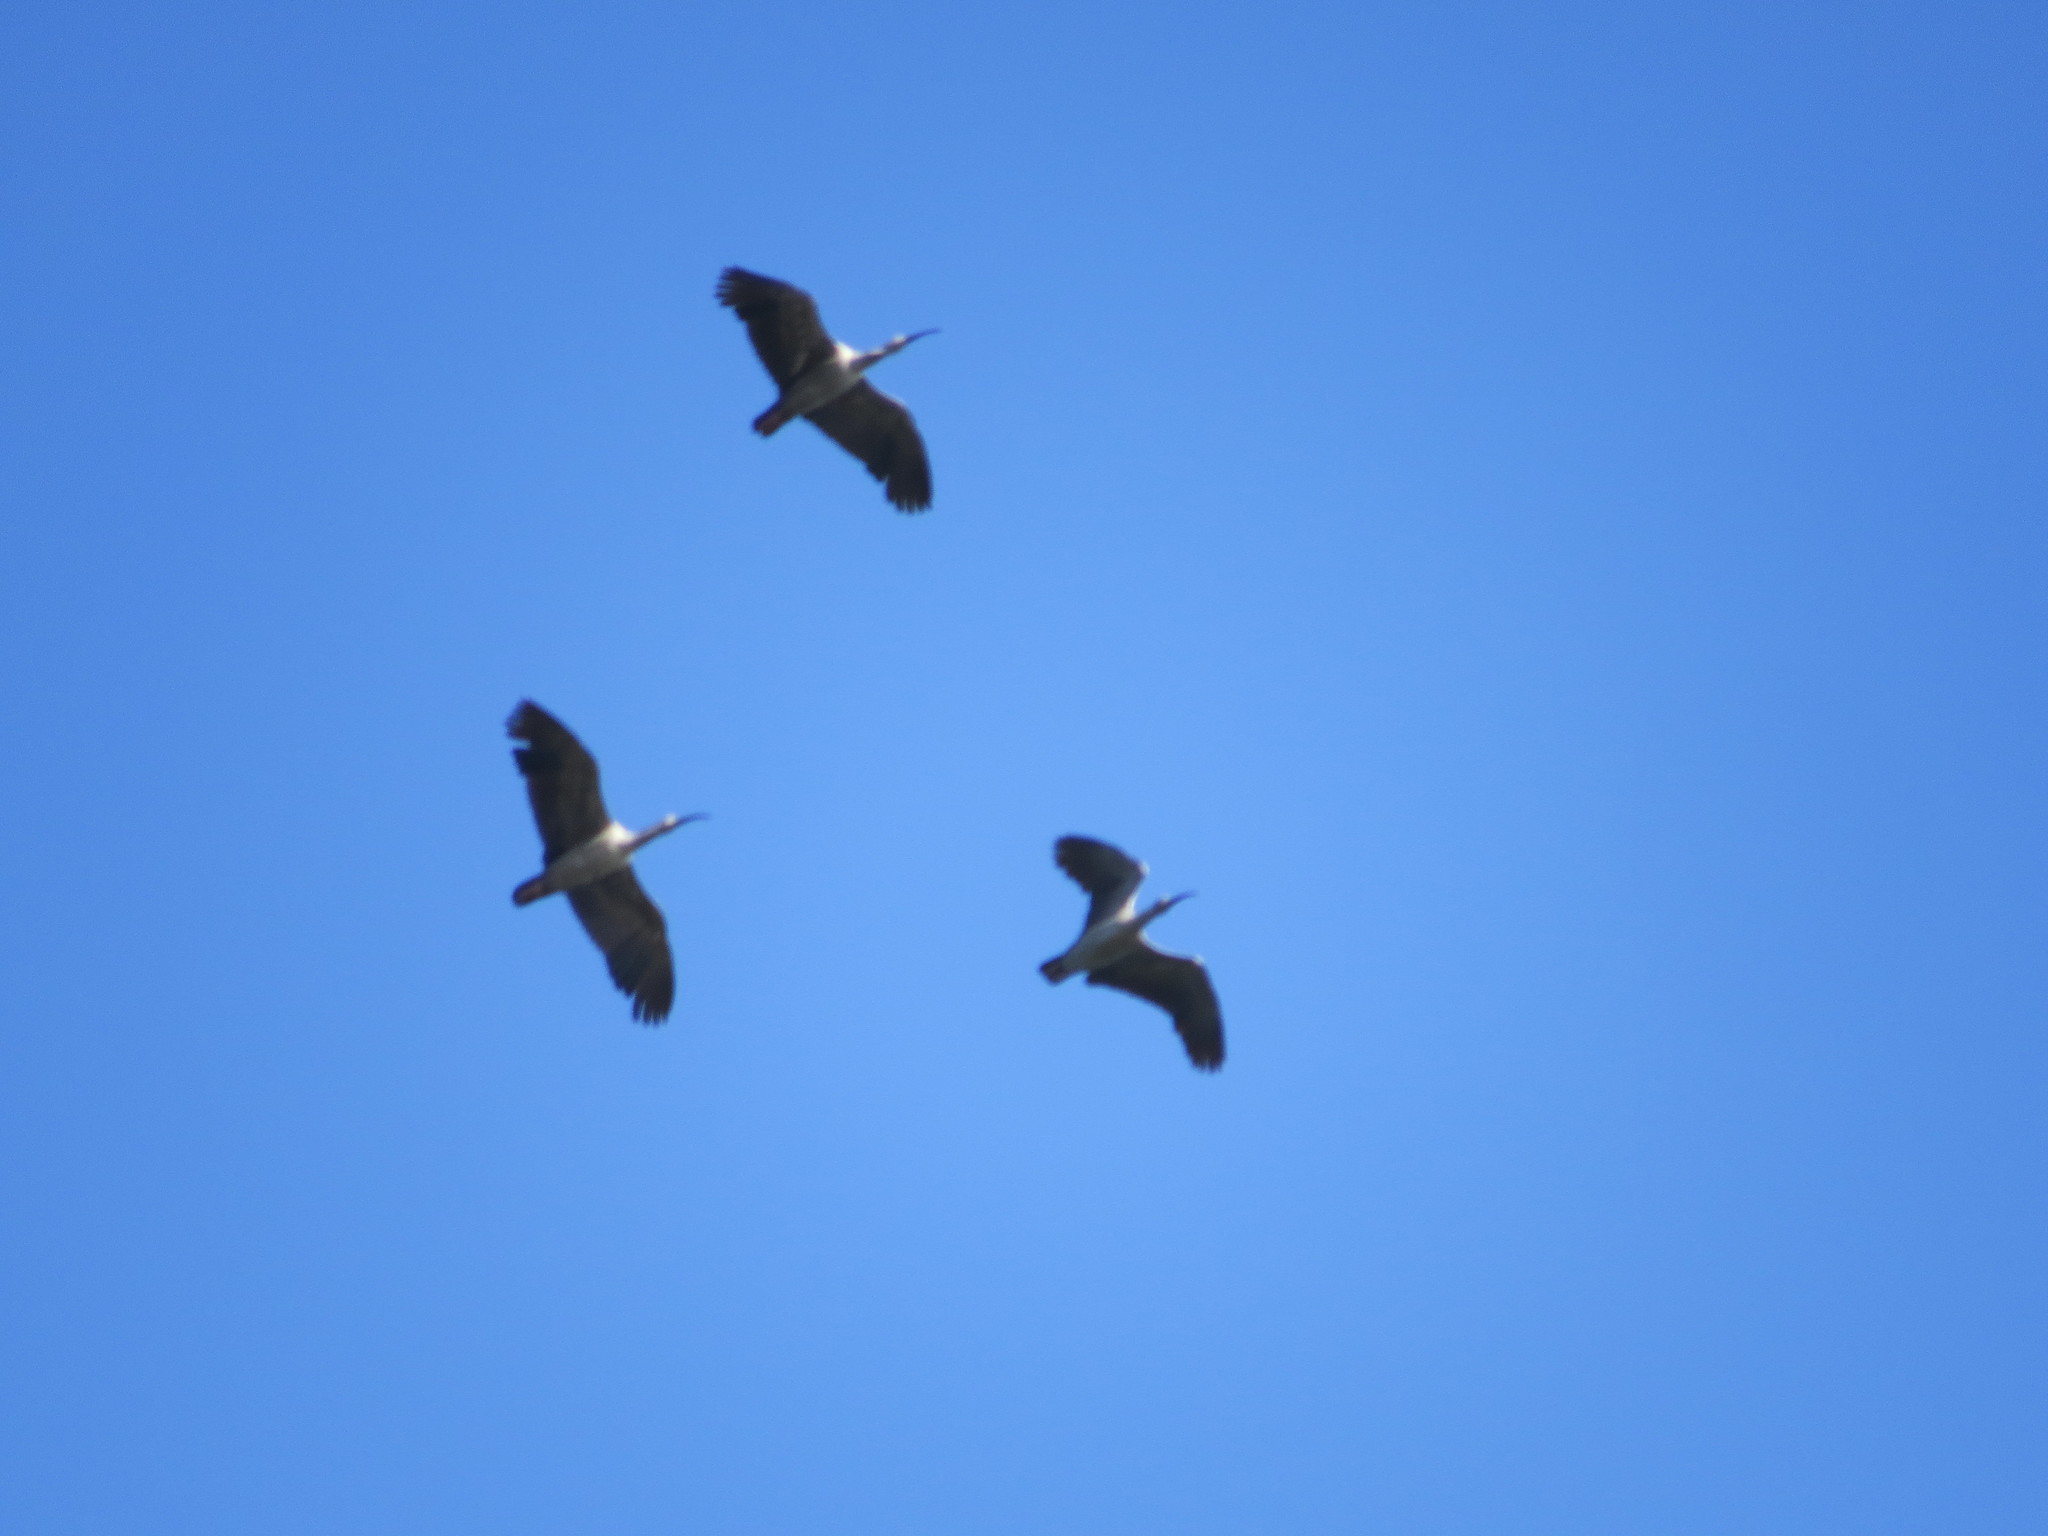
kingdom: Animalia
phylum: Chordata
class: Aves
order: Pelecaniformes
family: Threskiornithidae
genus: Theristicus
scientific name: Theristicus caerulescens
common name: Plumbeous ibis
